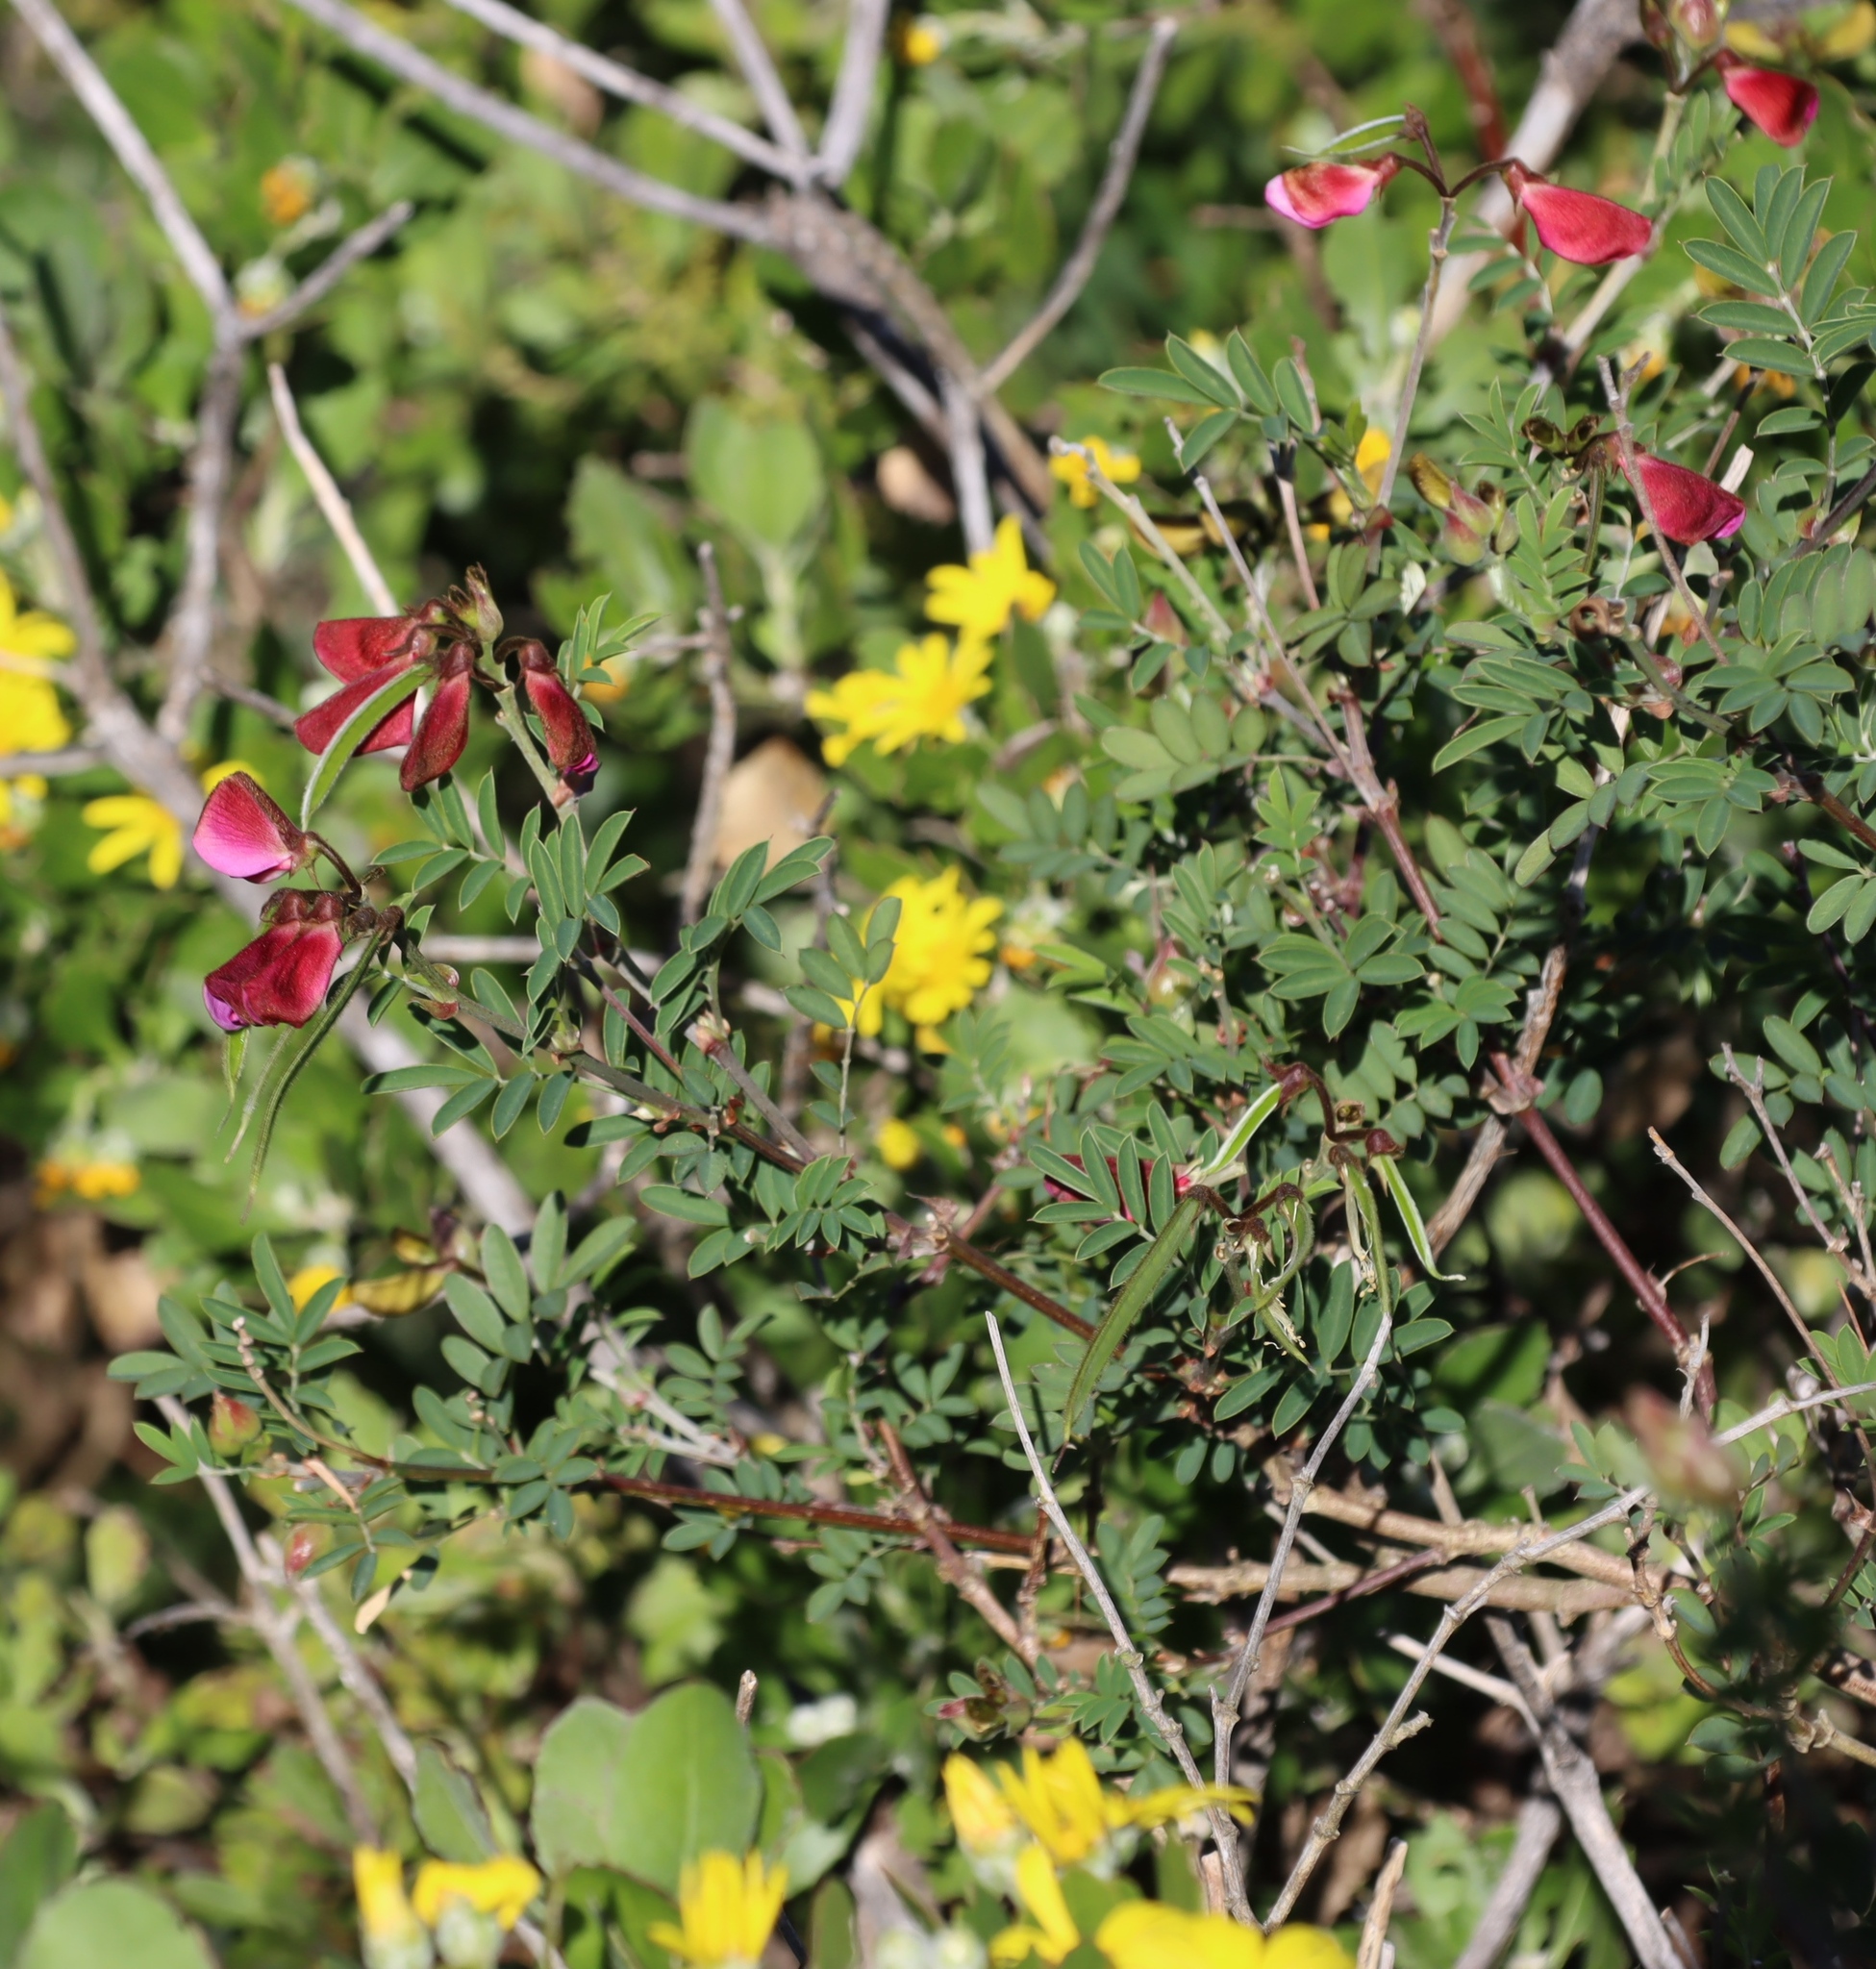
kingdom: Plantae
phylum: Tracheophyta
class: Magnoliopsida
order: Fabales
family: Fabaceae
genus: Tephrosia
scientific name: Tephrosia grandiflora
